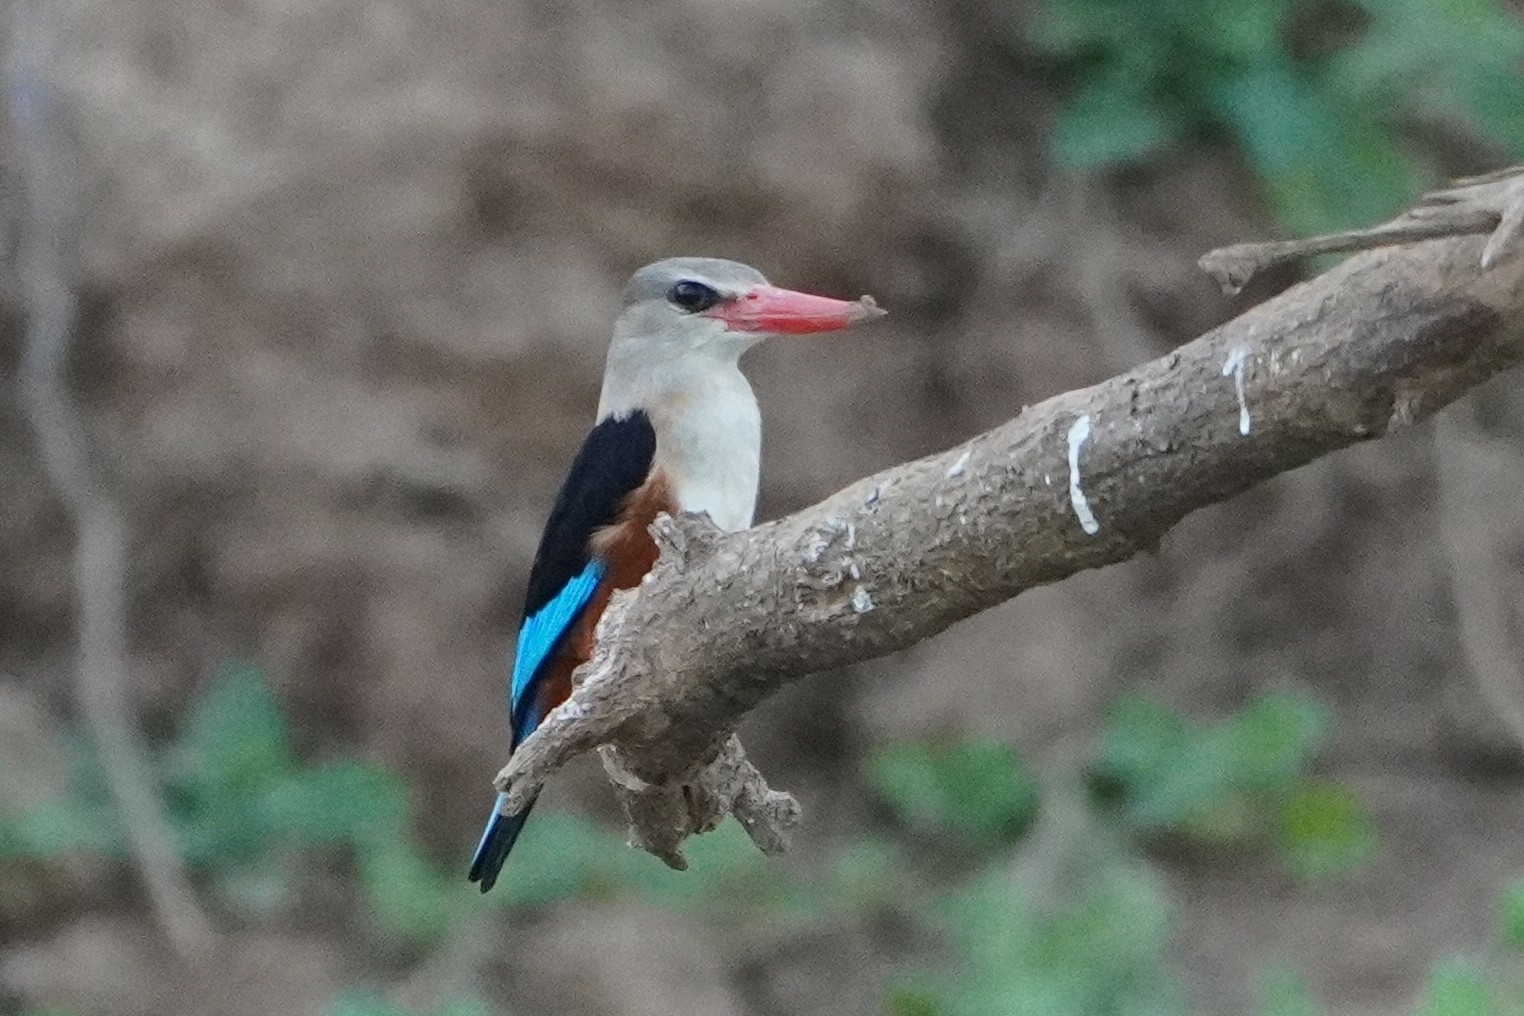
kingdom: Animalia
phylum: Chordata
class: Aves
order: Coraciiformes
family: Alcedinidae
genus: Halcyon
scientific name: Halcyon leucocephala
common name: Grey-headed kingfisher
